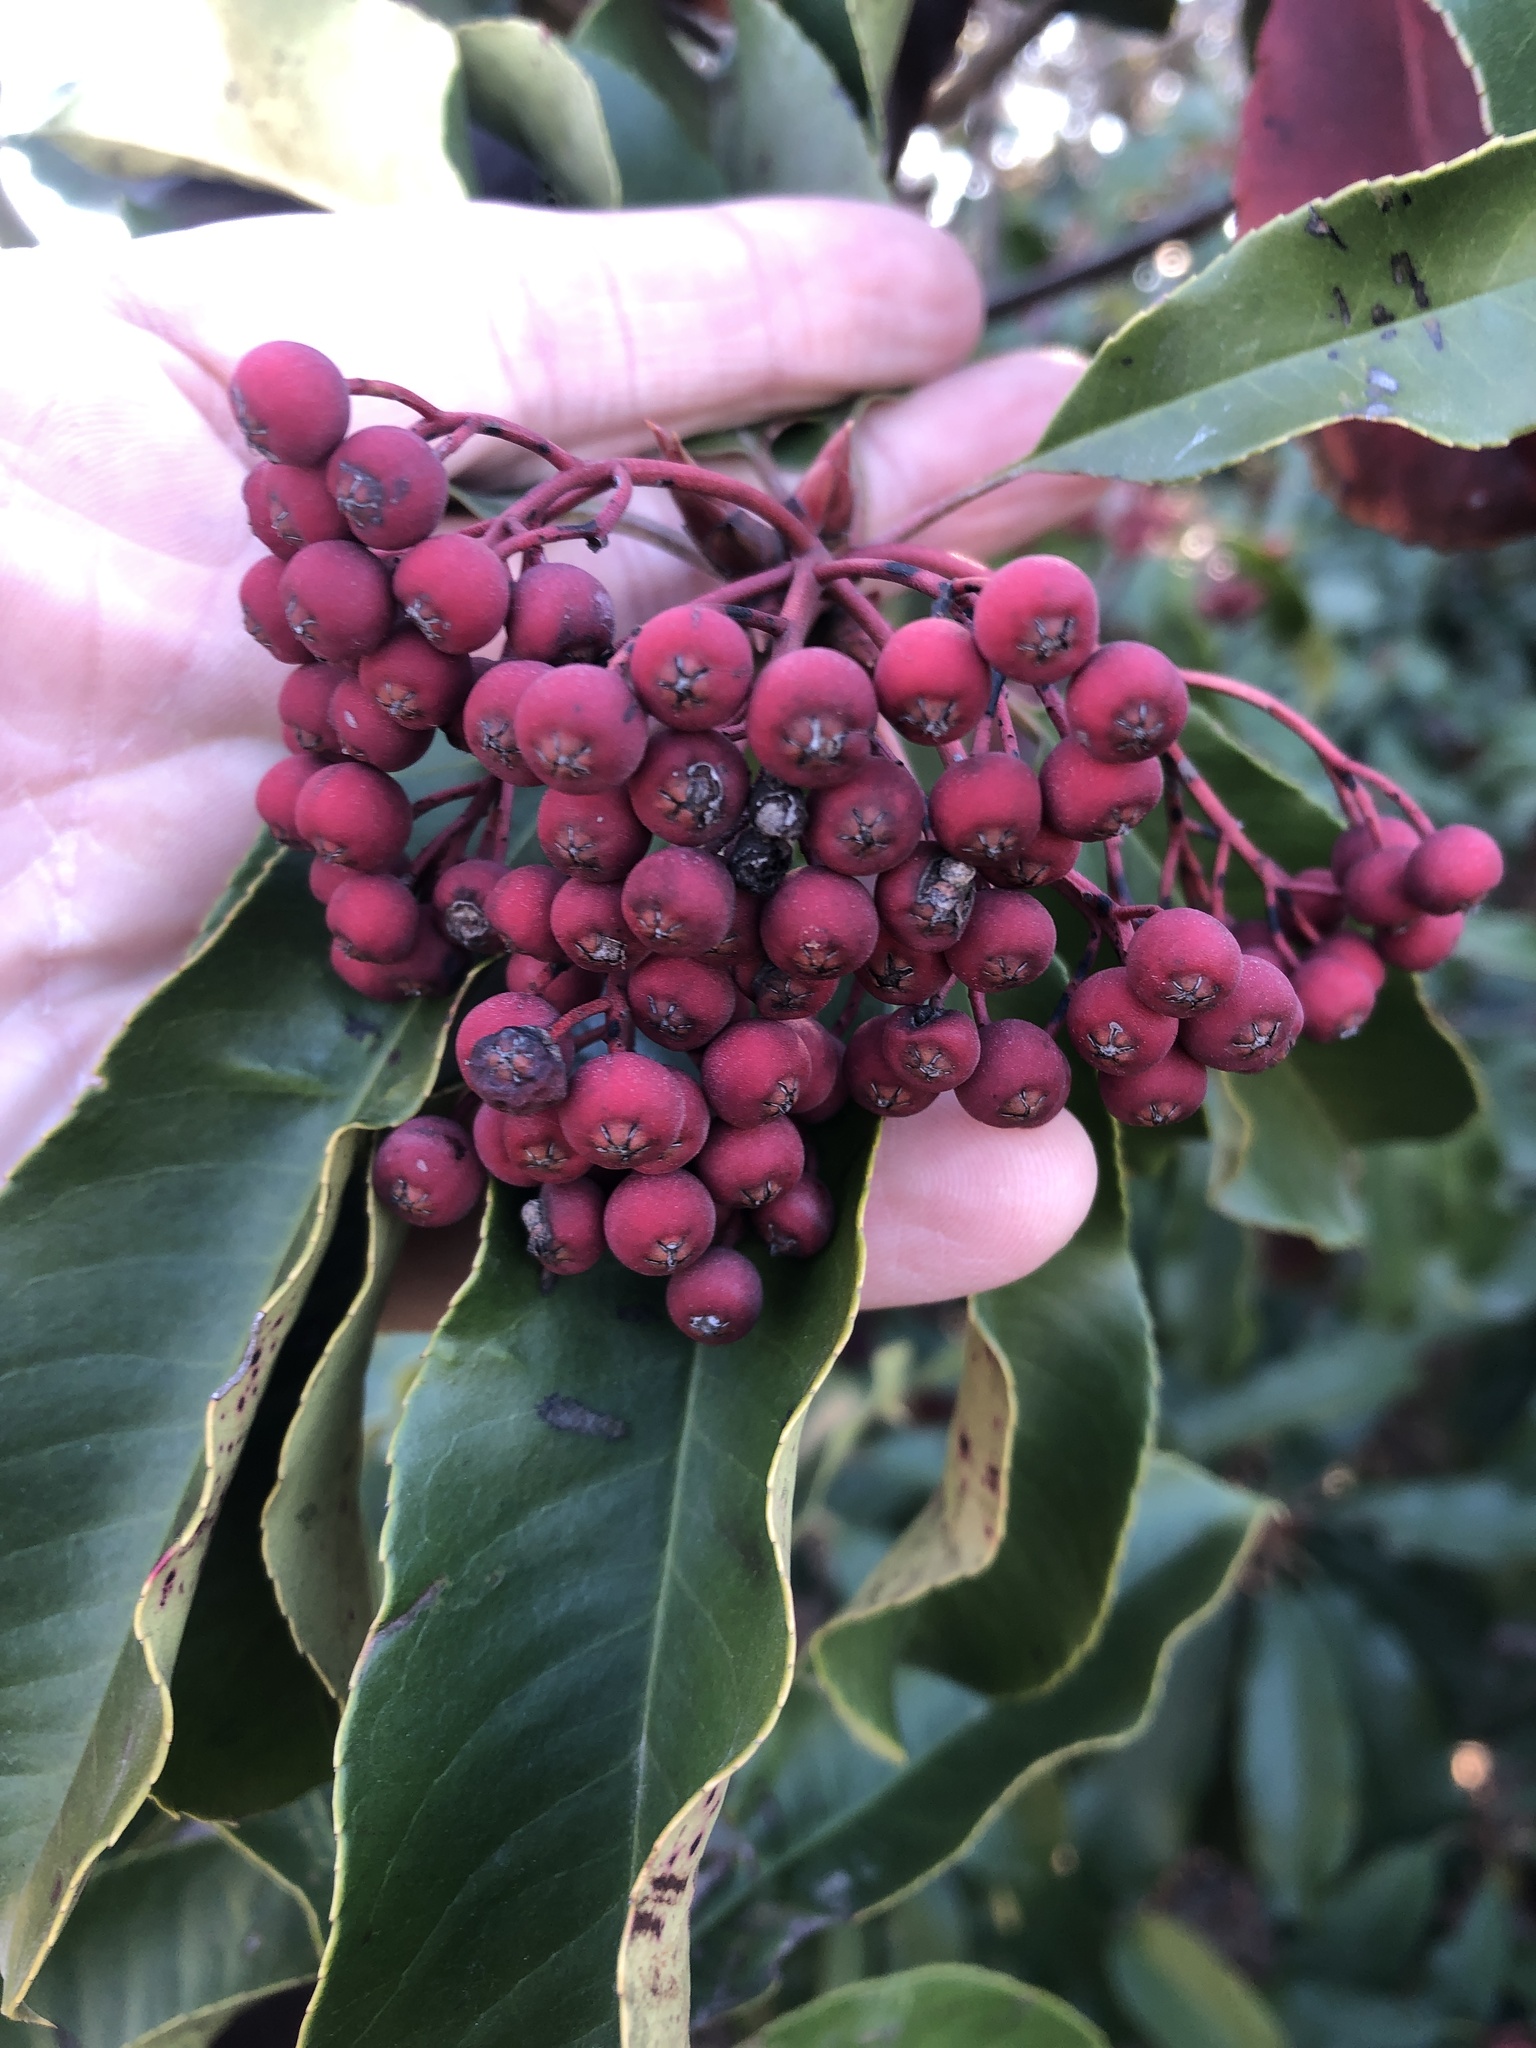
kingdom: Plantae
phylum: Tracheophyta
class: Magnoliopsida
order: Rosales
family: Rosaceae
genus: Photinia
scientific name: Photinia serratifolia
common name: Taiwanese photinia
